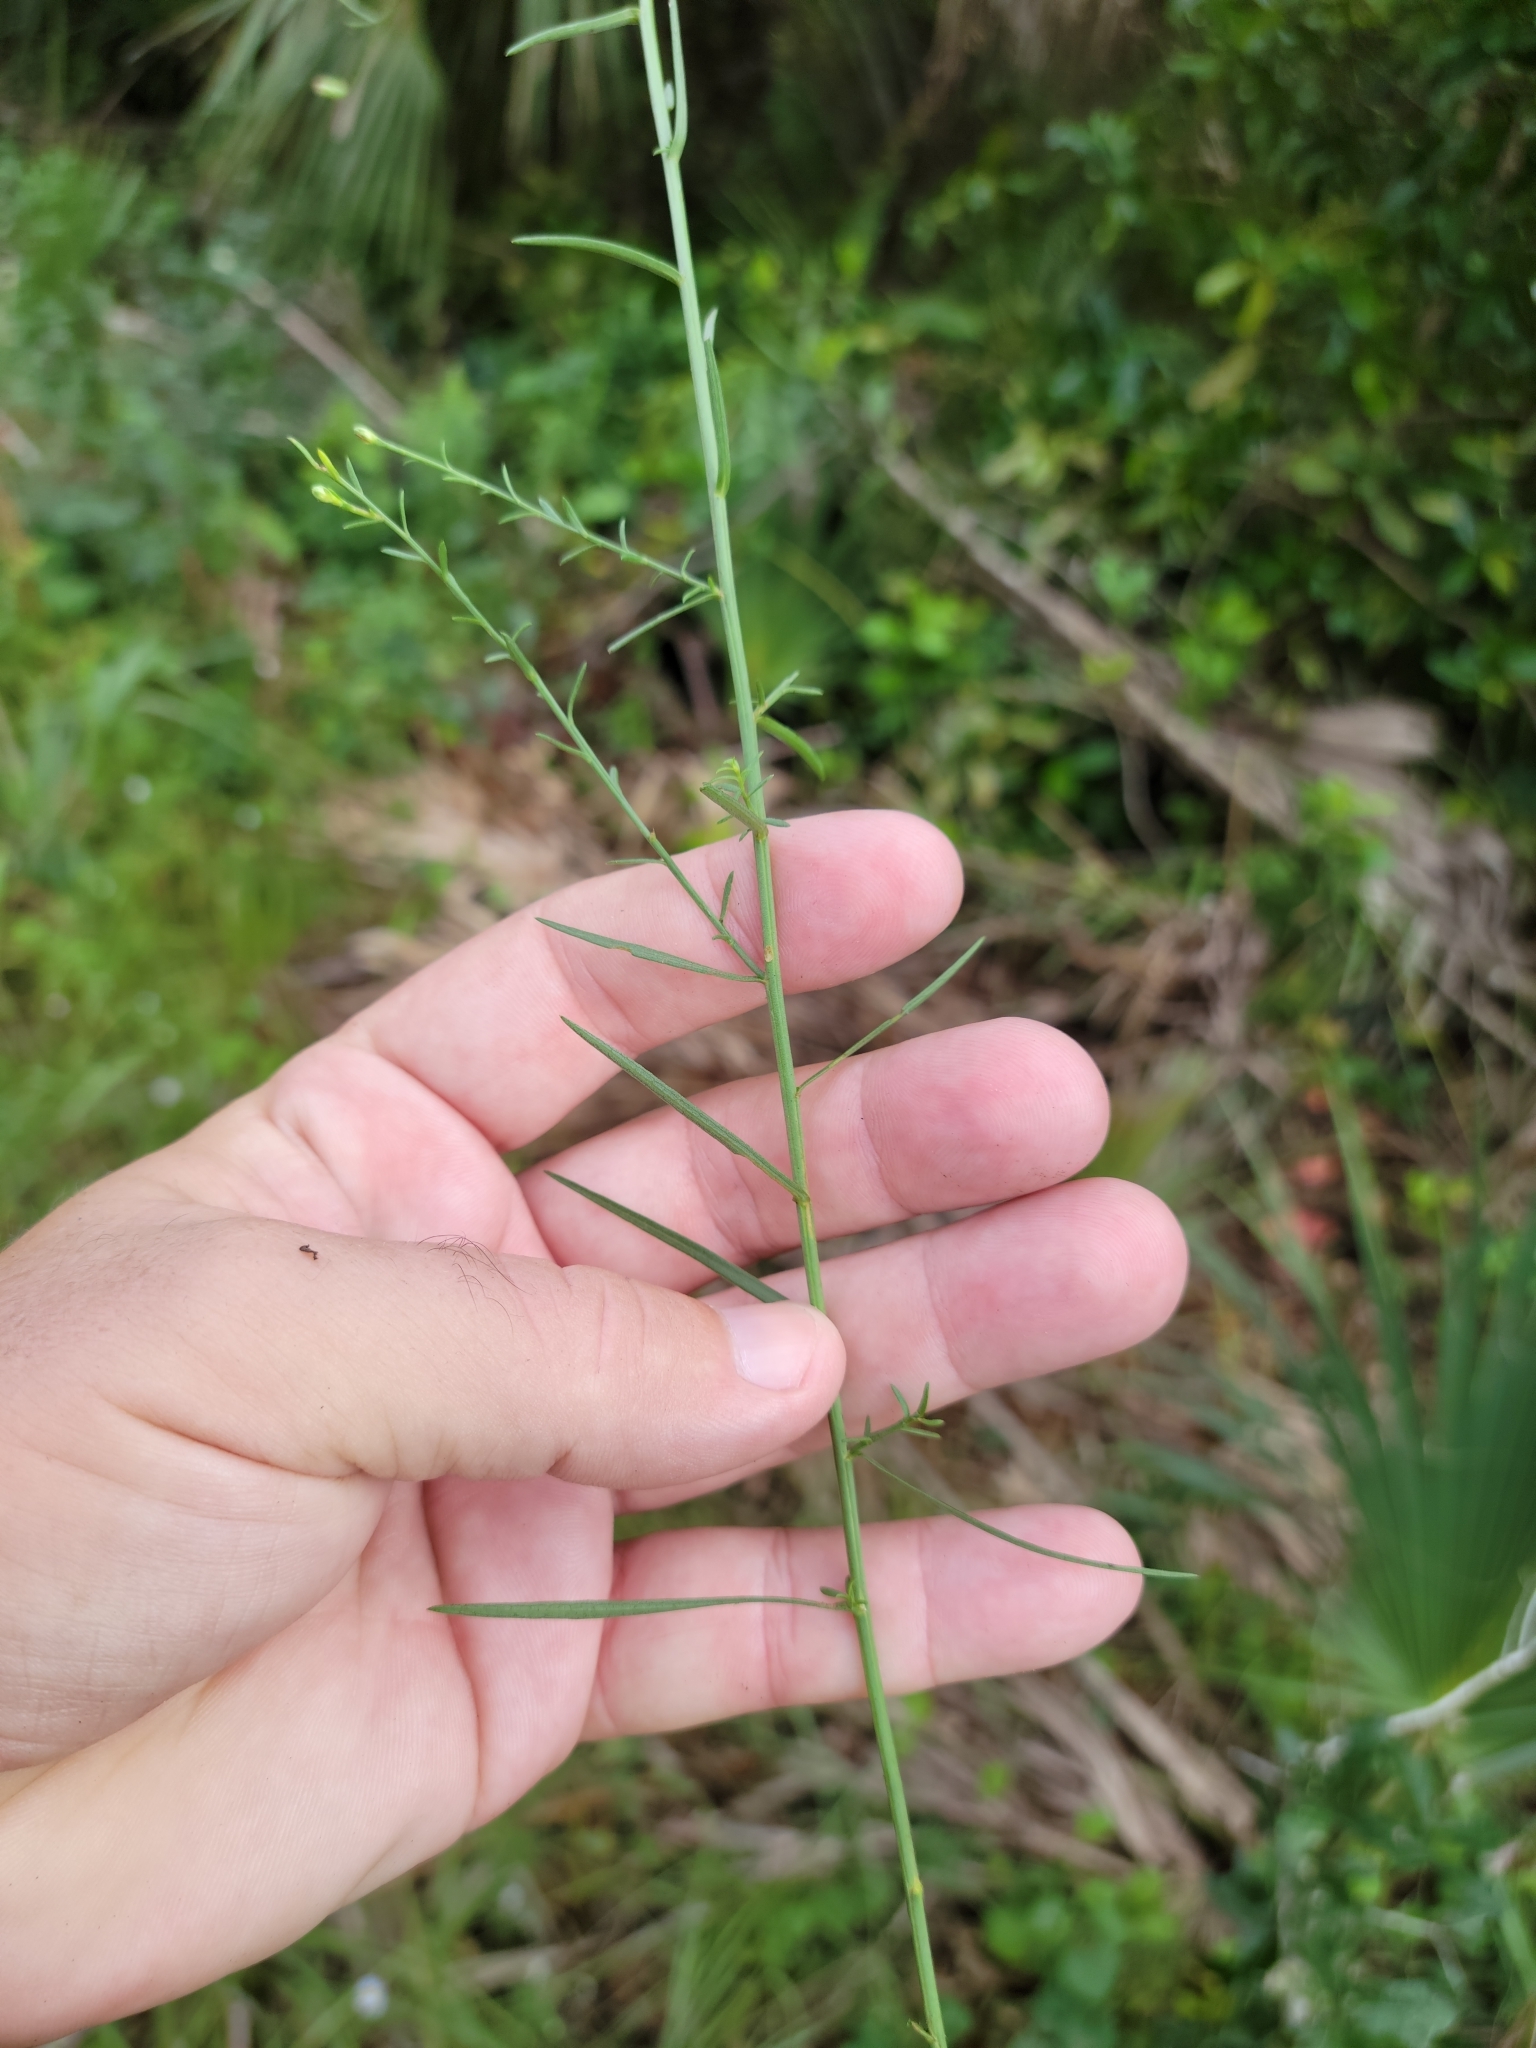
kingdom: Plantae
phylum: Tracheophyta
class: Magnoliopsida
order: Asterales
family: Asteraceae
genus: Symphyotrichum
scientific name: Symphyotrichum dumosum
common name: Bushy aster
